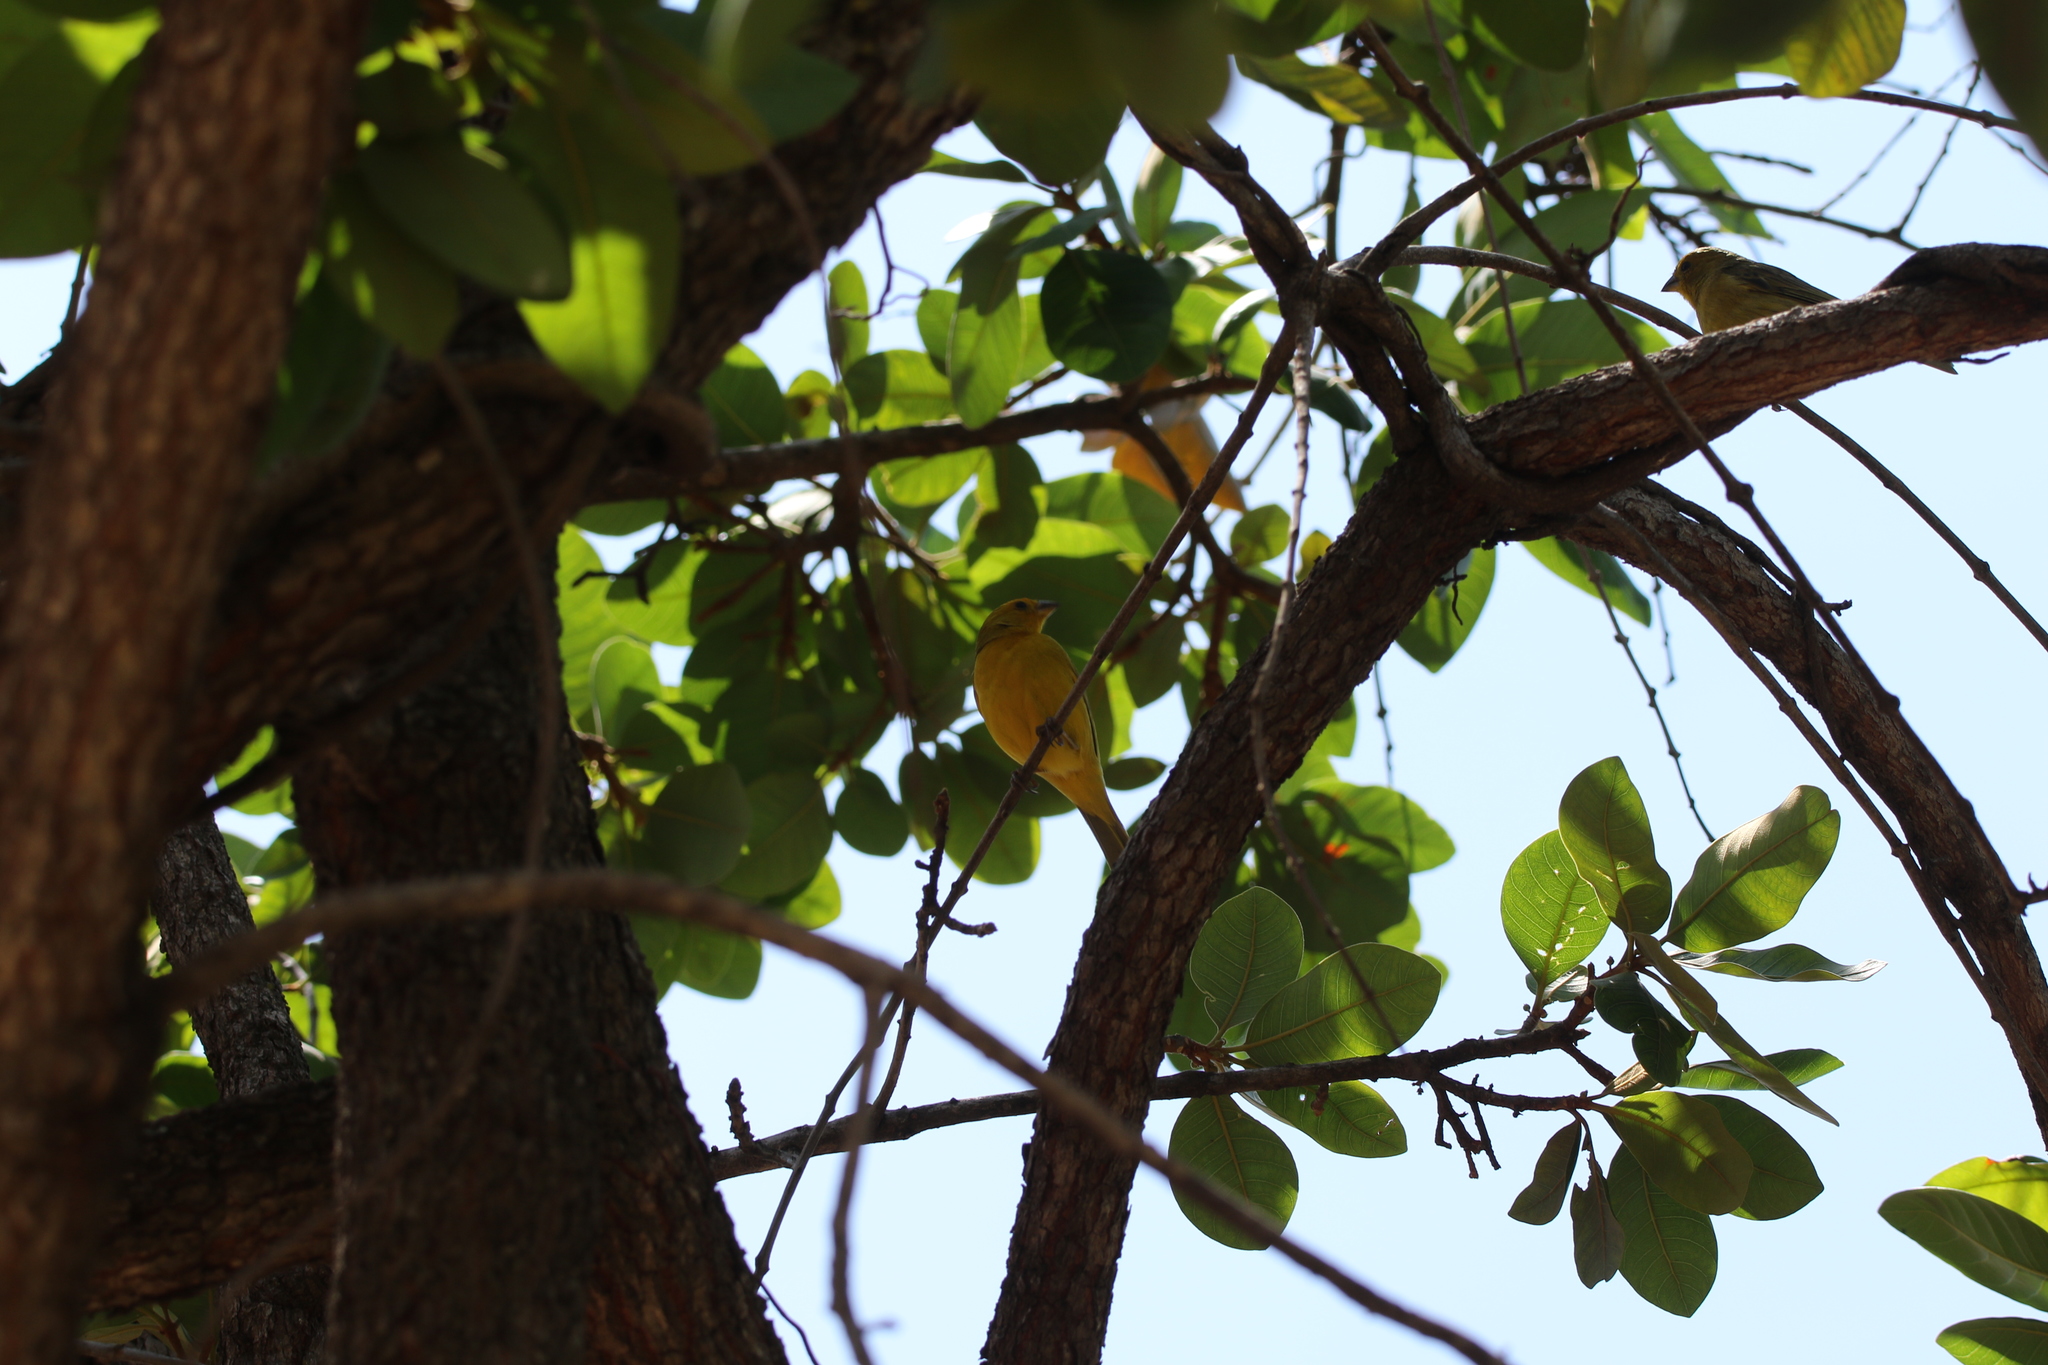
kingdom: Animalia
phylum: Chordata
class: Aves
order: Passeriformes
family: Thraupidae
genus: Sicalis
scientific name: Sicalis flaveola
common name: Saffron finch
